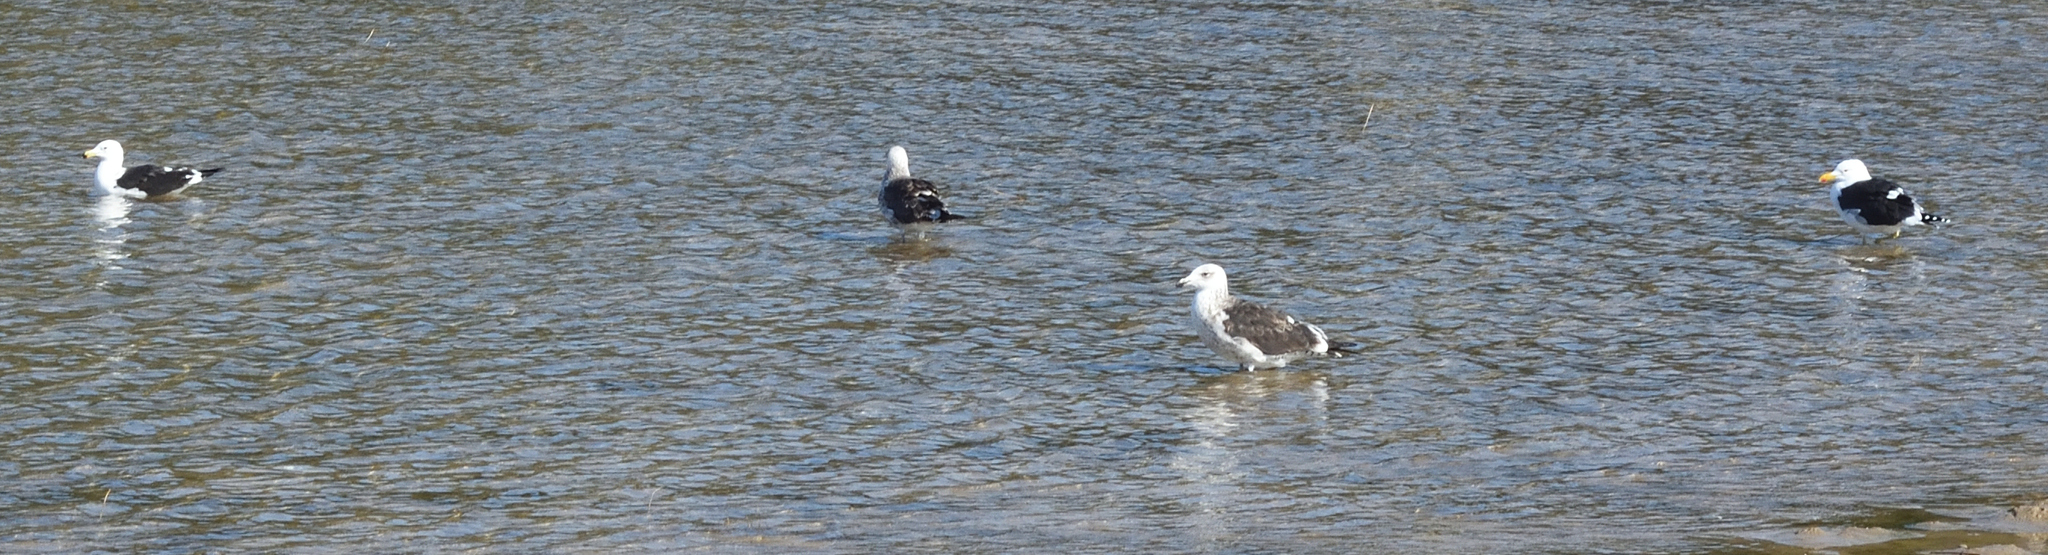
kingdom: Animalia
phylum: Chordata
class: Aves
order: Charadriiformes
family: Laridae
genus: Larus
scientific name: Larus dominicanus
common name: Kelp gull
